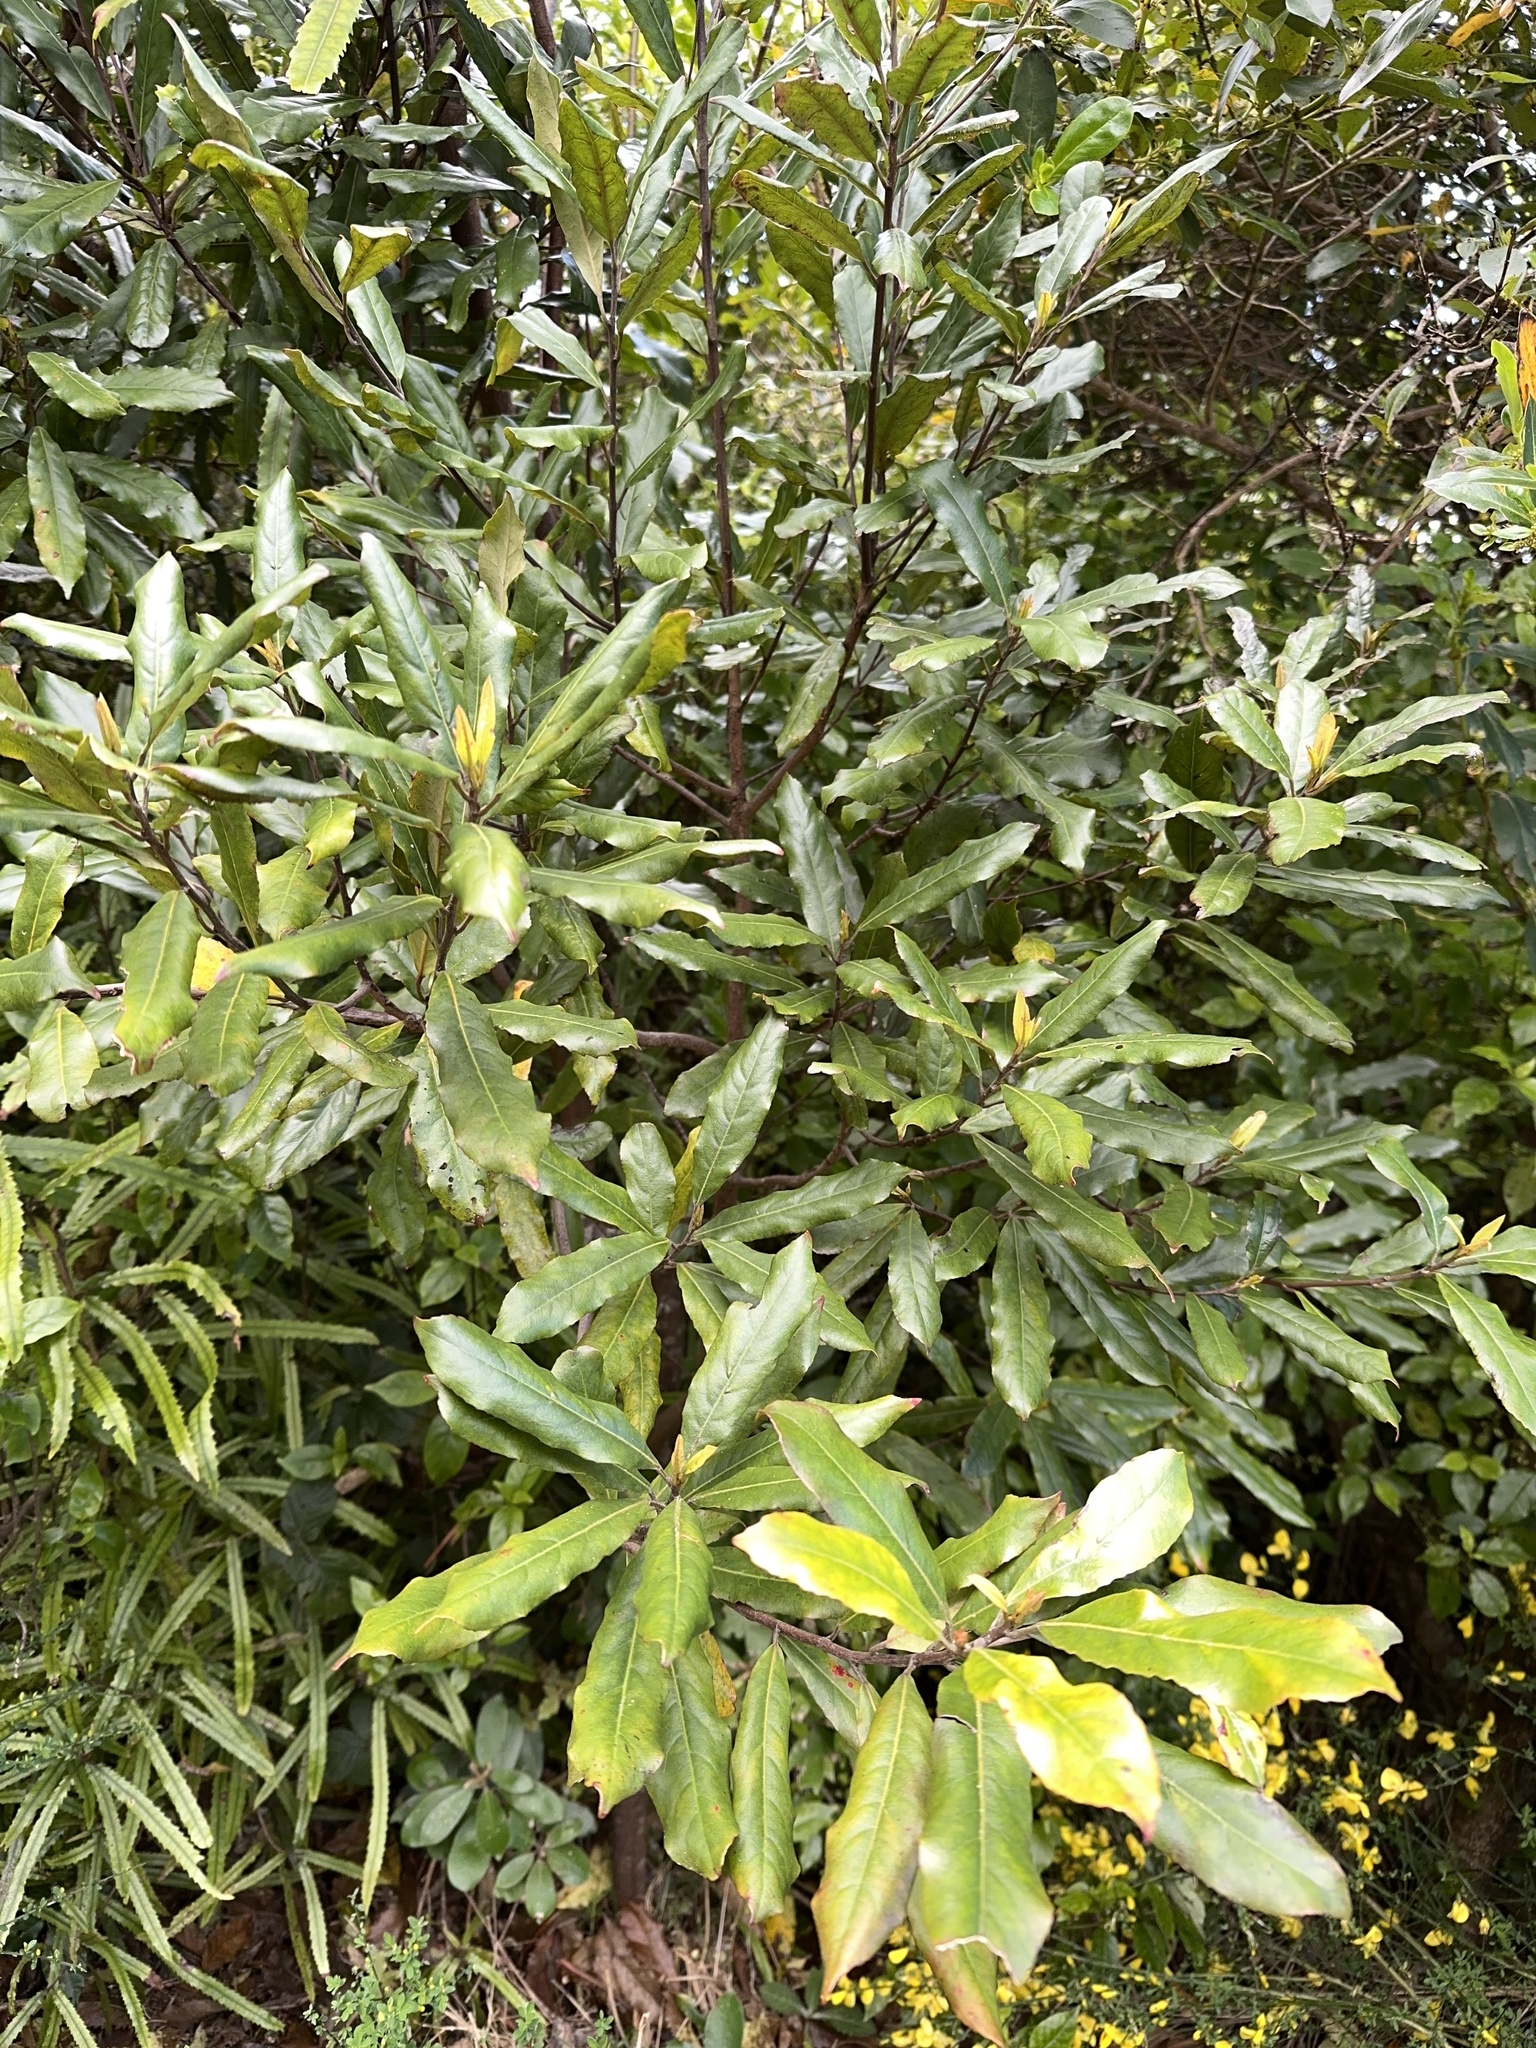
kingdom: Plantae
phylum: Tracheophyta
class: Magnoliopsida
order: Oxalidales
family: Elaeocarpaceae
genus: Elaeocarpus
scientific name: Elaeocarpus dentatus
